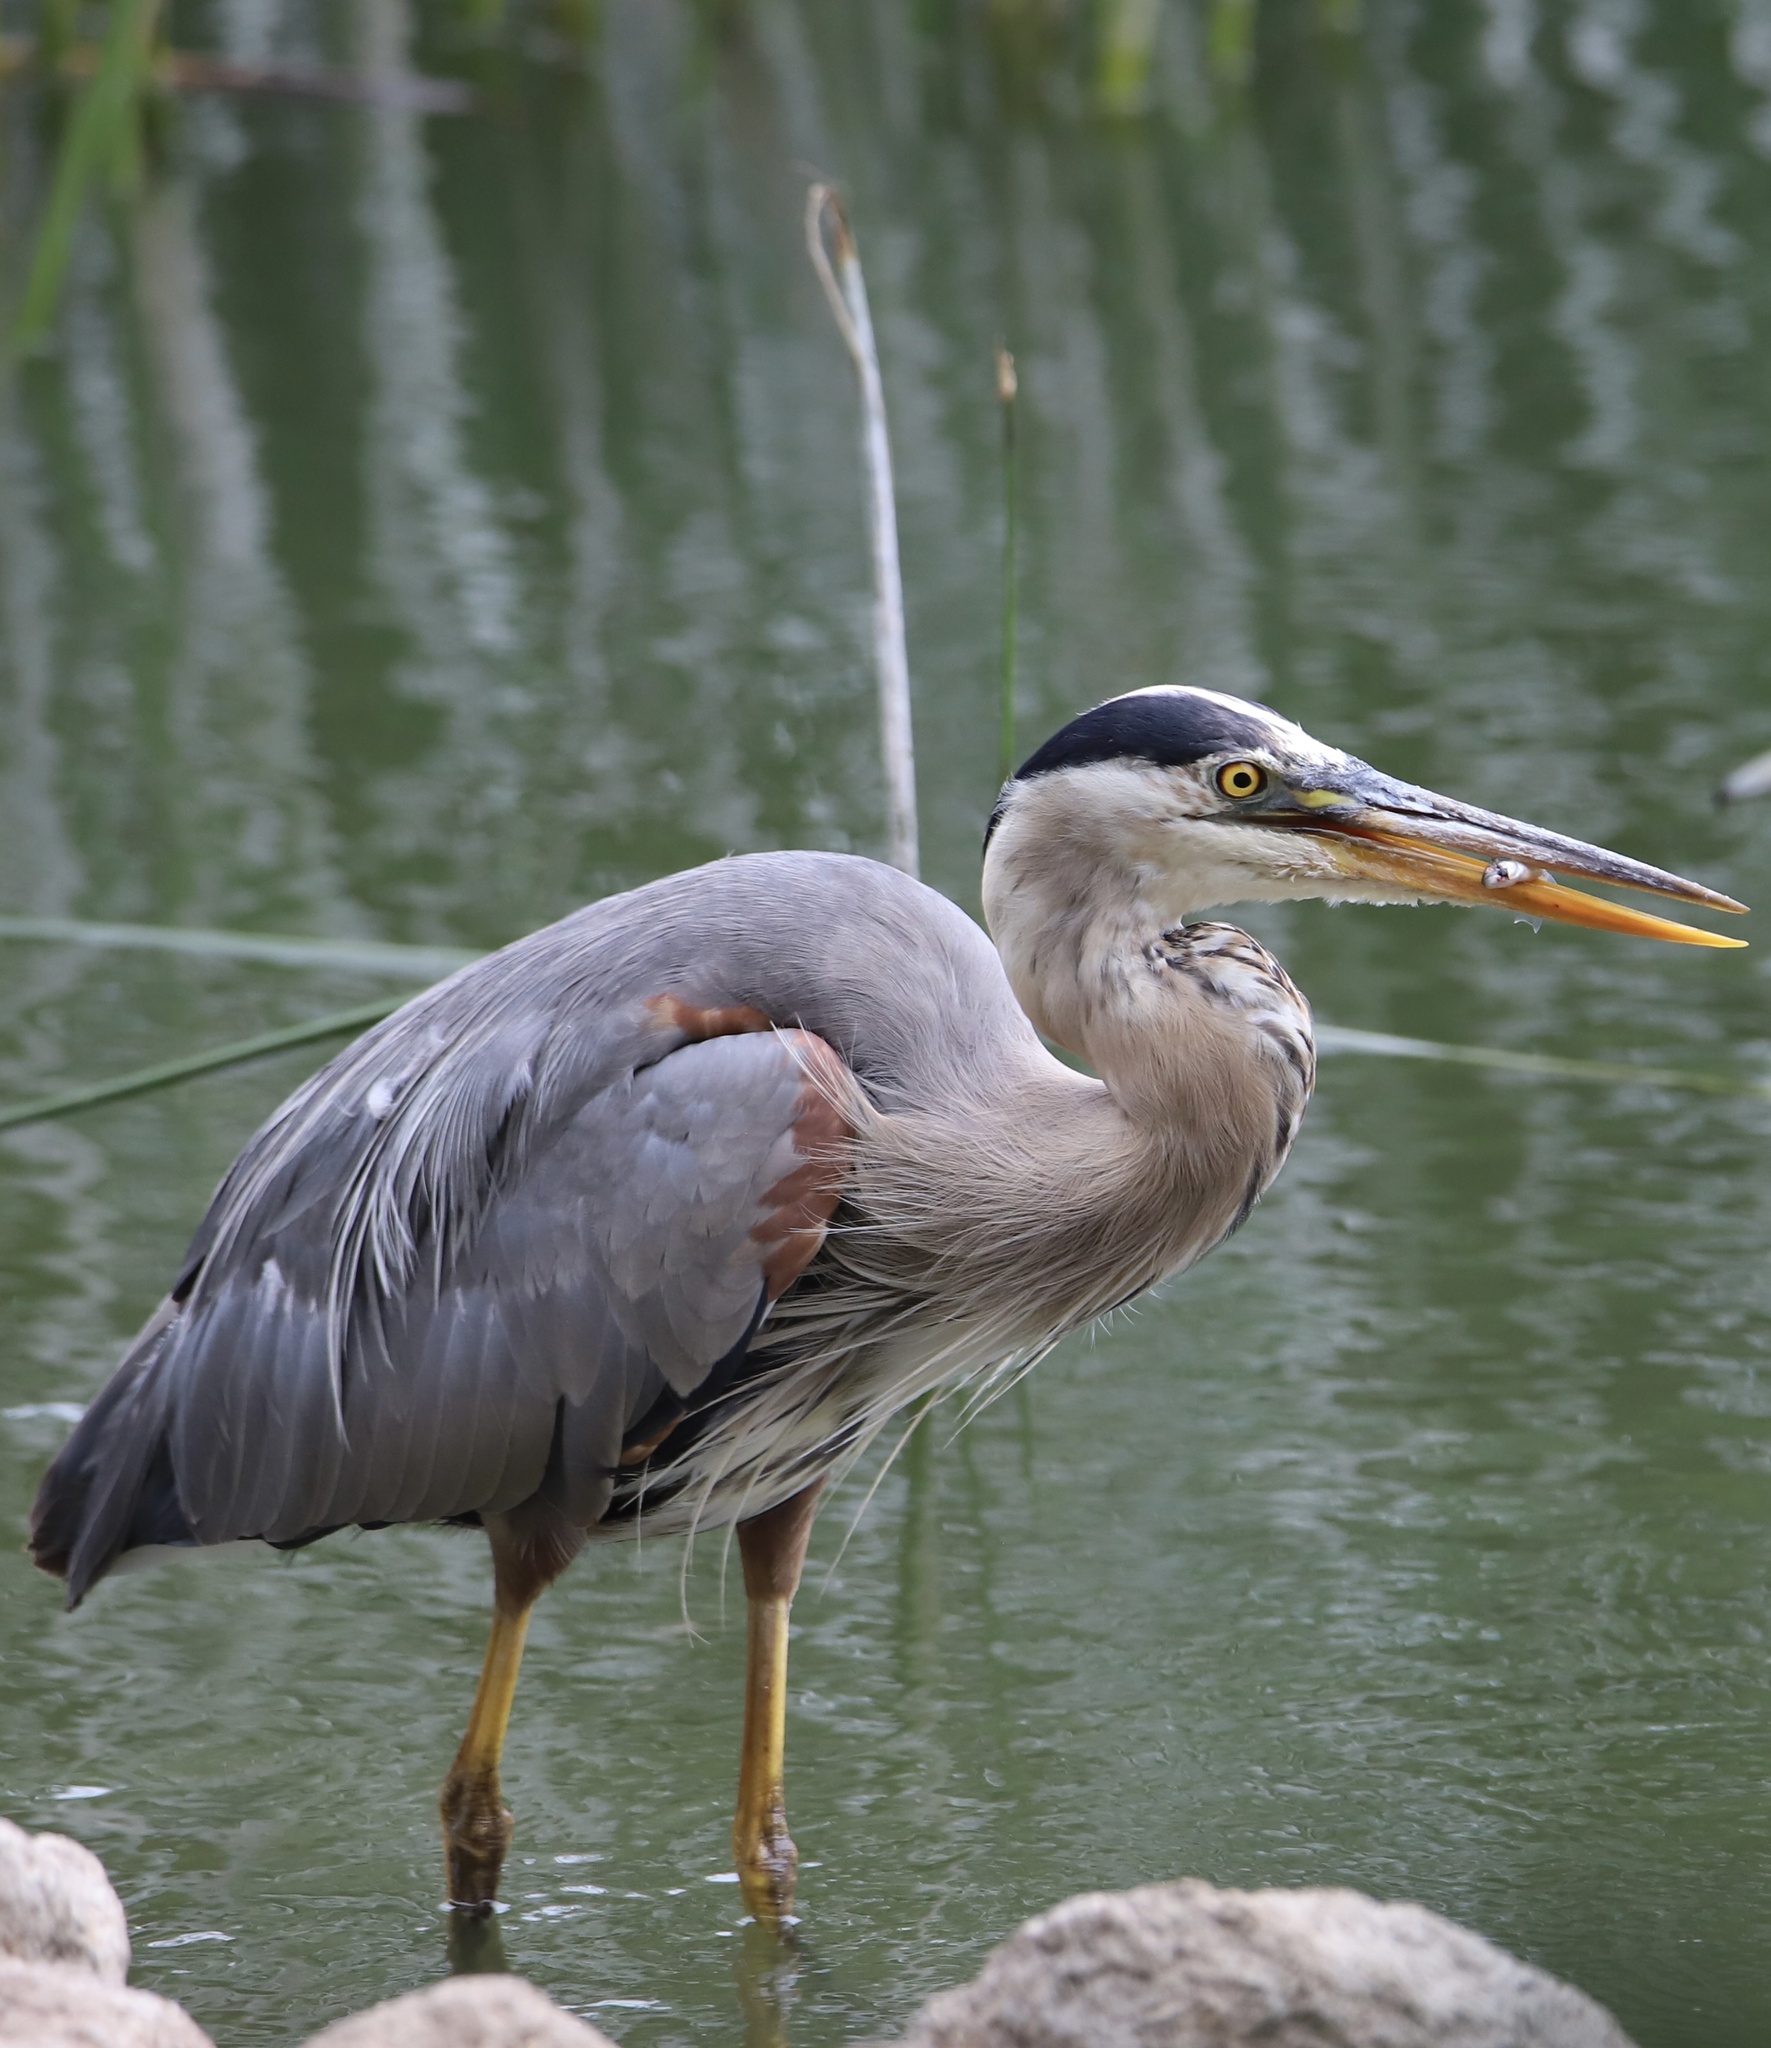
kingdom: Animalia
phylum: Chordata
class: Aves
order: Pelecaniformes
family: Ardeidae
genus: Ardea
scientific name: Ardea herodias
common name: Great blue heron
